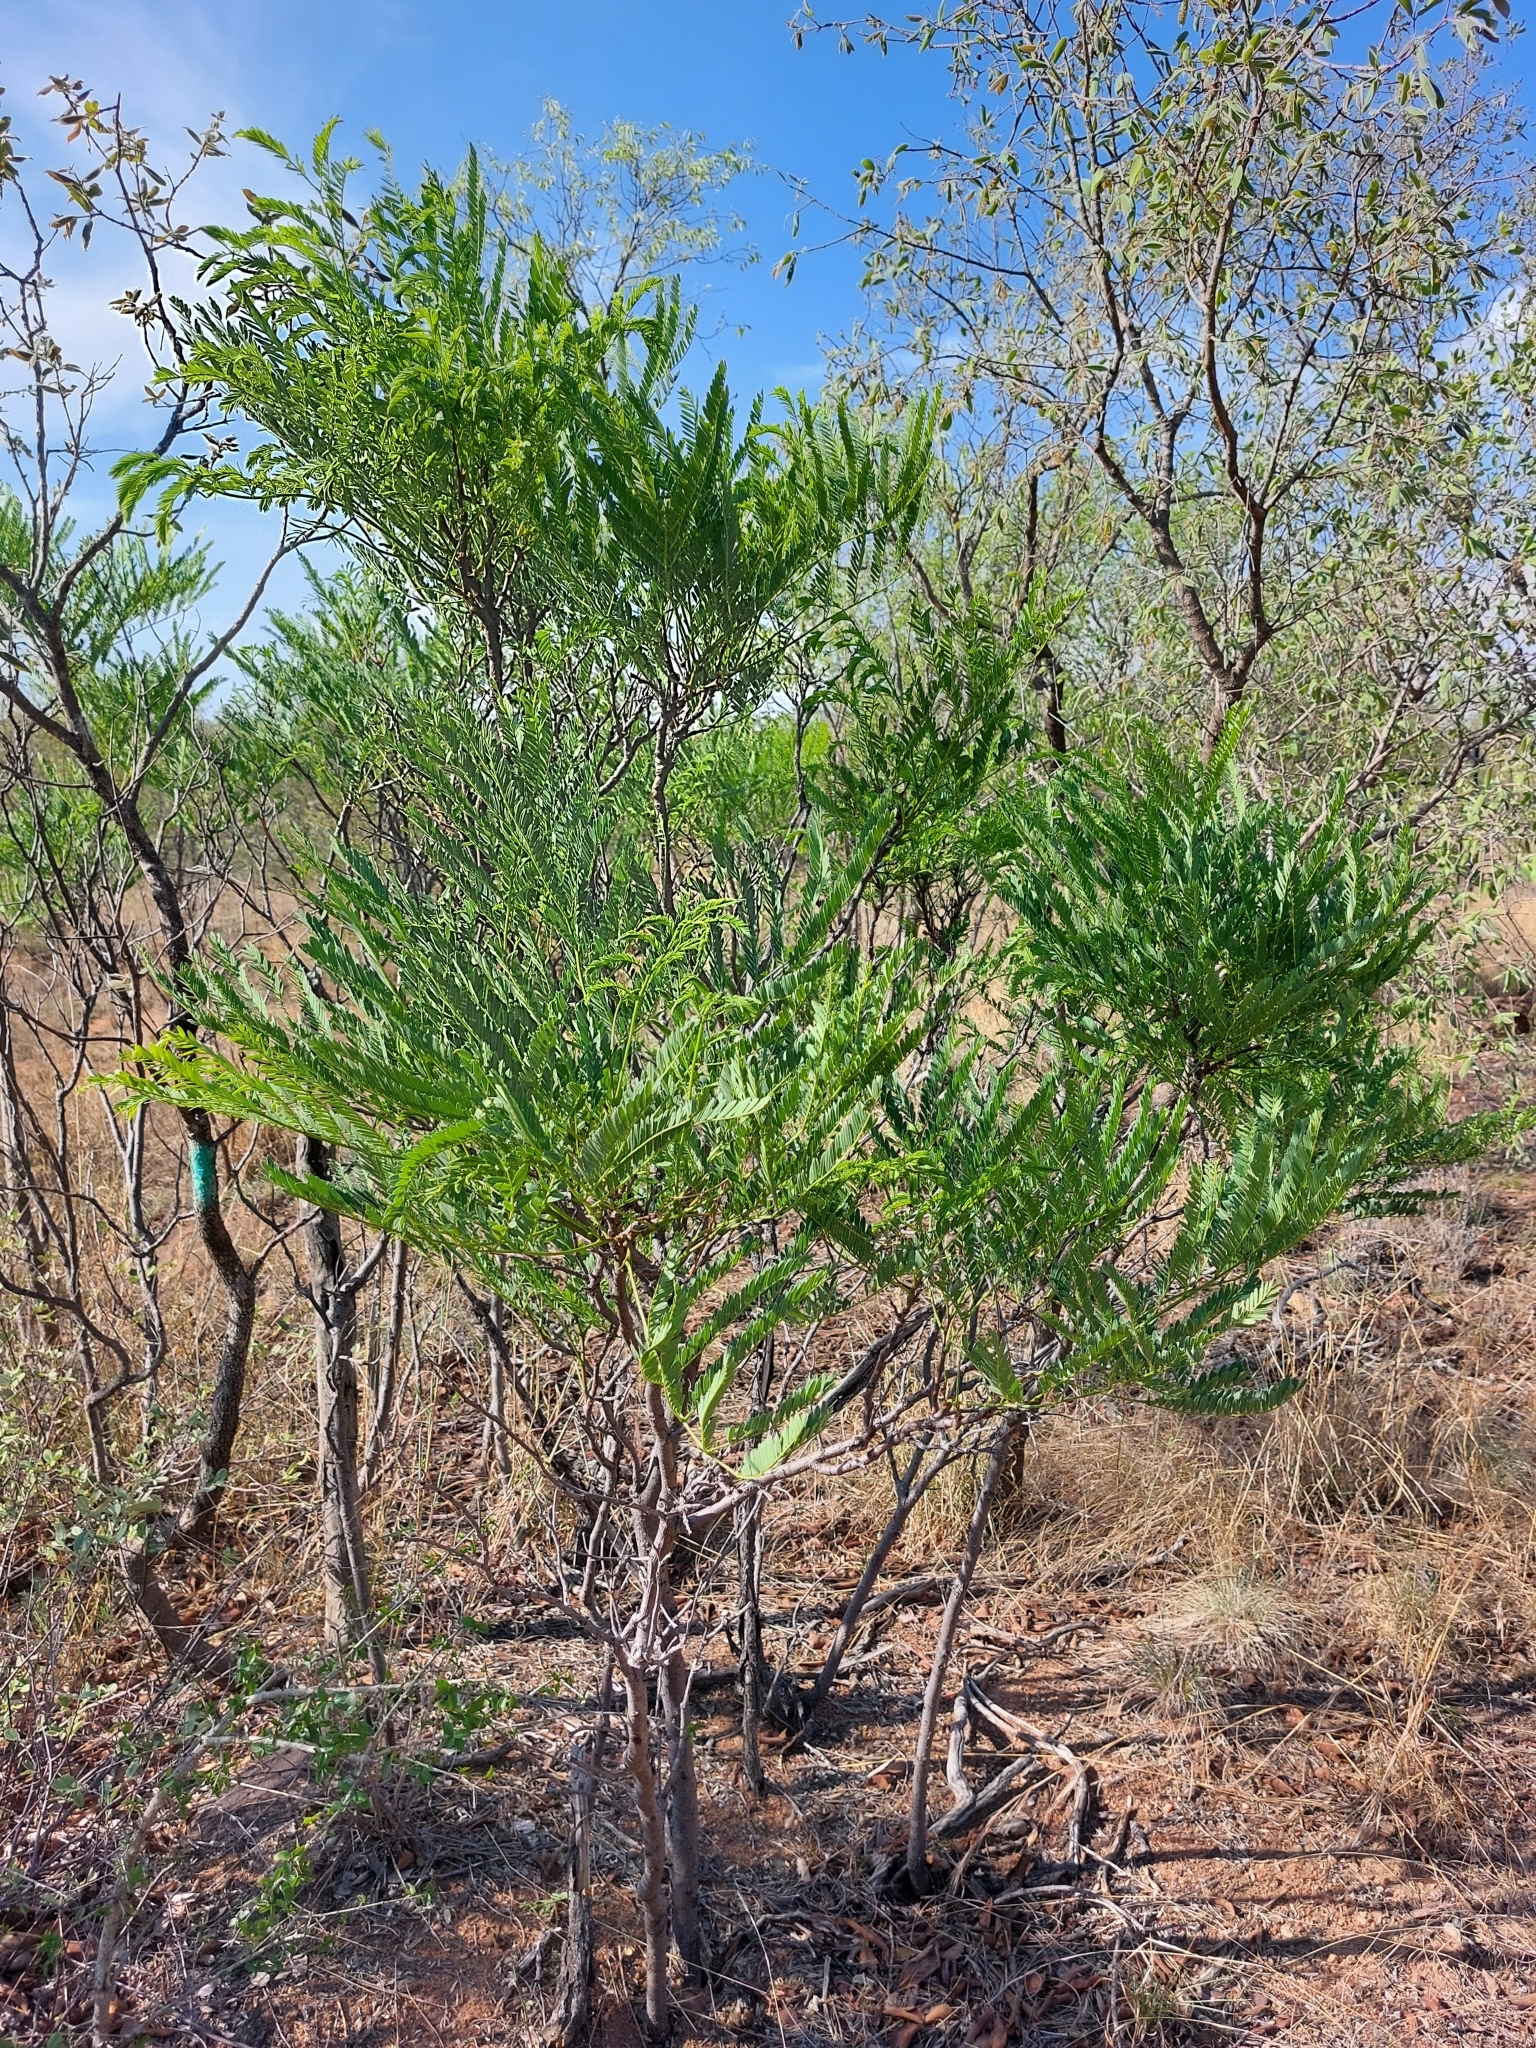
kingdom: Plantae
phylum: Tracheophyta
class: Magnoliopsida
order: Fabales
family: Fabaceae
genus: Elephantorrhiza
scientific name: Elephantorrhiza burkei
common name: Broad-pod elephant-root
